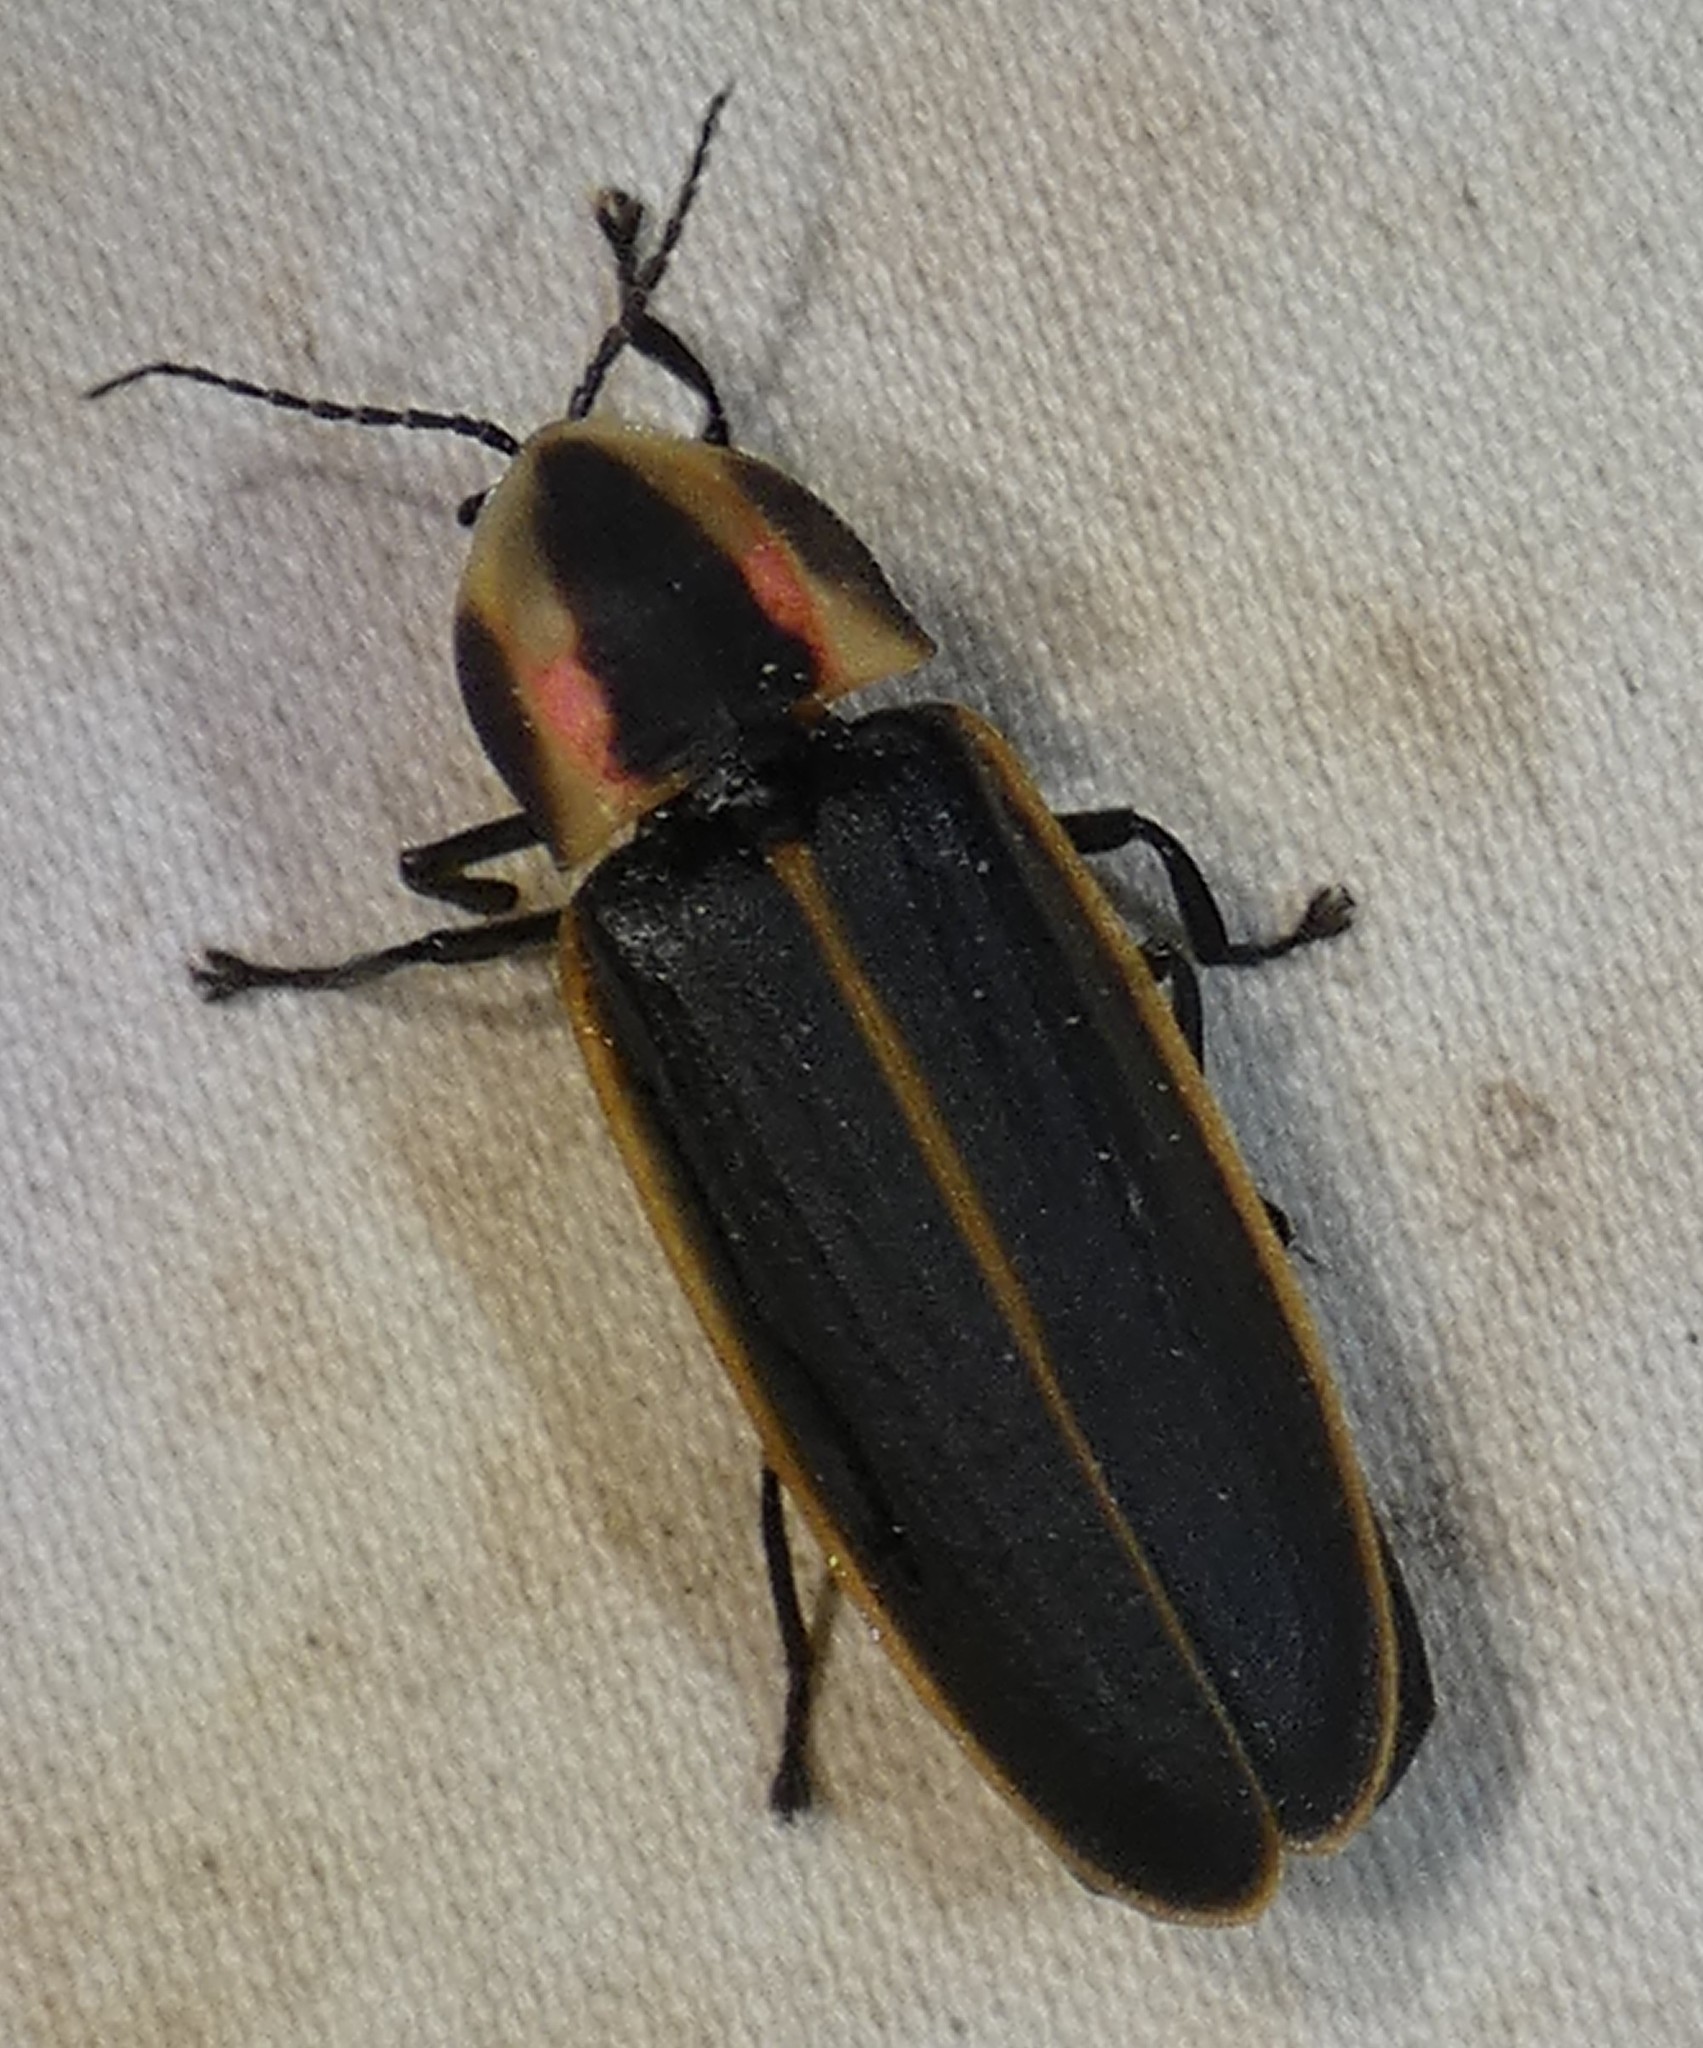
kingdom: Animalia
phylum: Arthropoda
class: Insecta
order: Coleoptera
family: Lampyridae
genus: Pyractomena
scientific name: Pyractomena borealis
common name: Northern firefly
